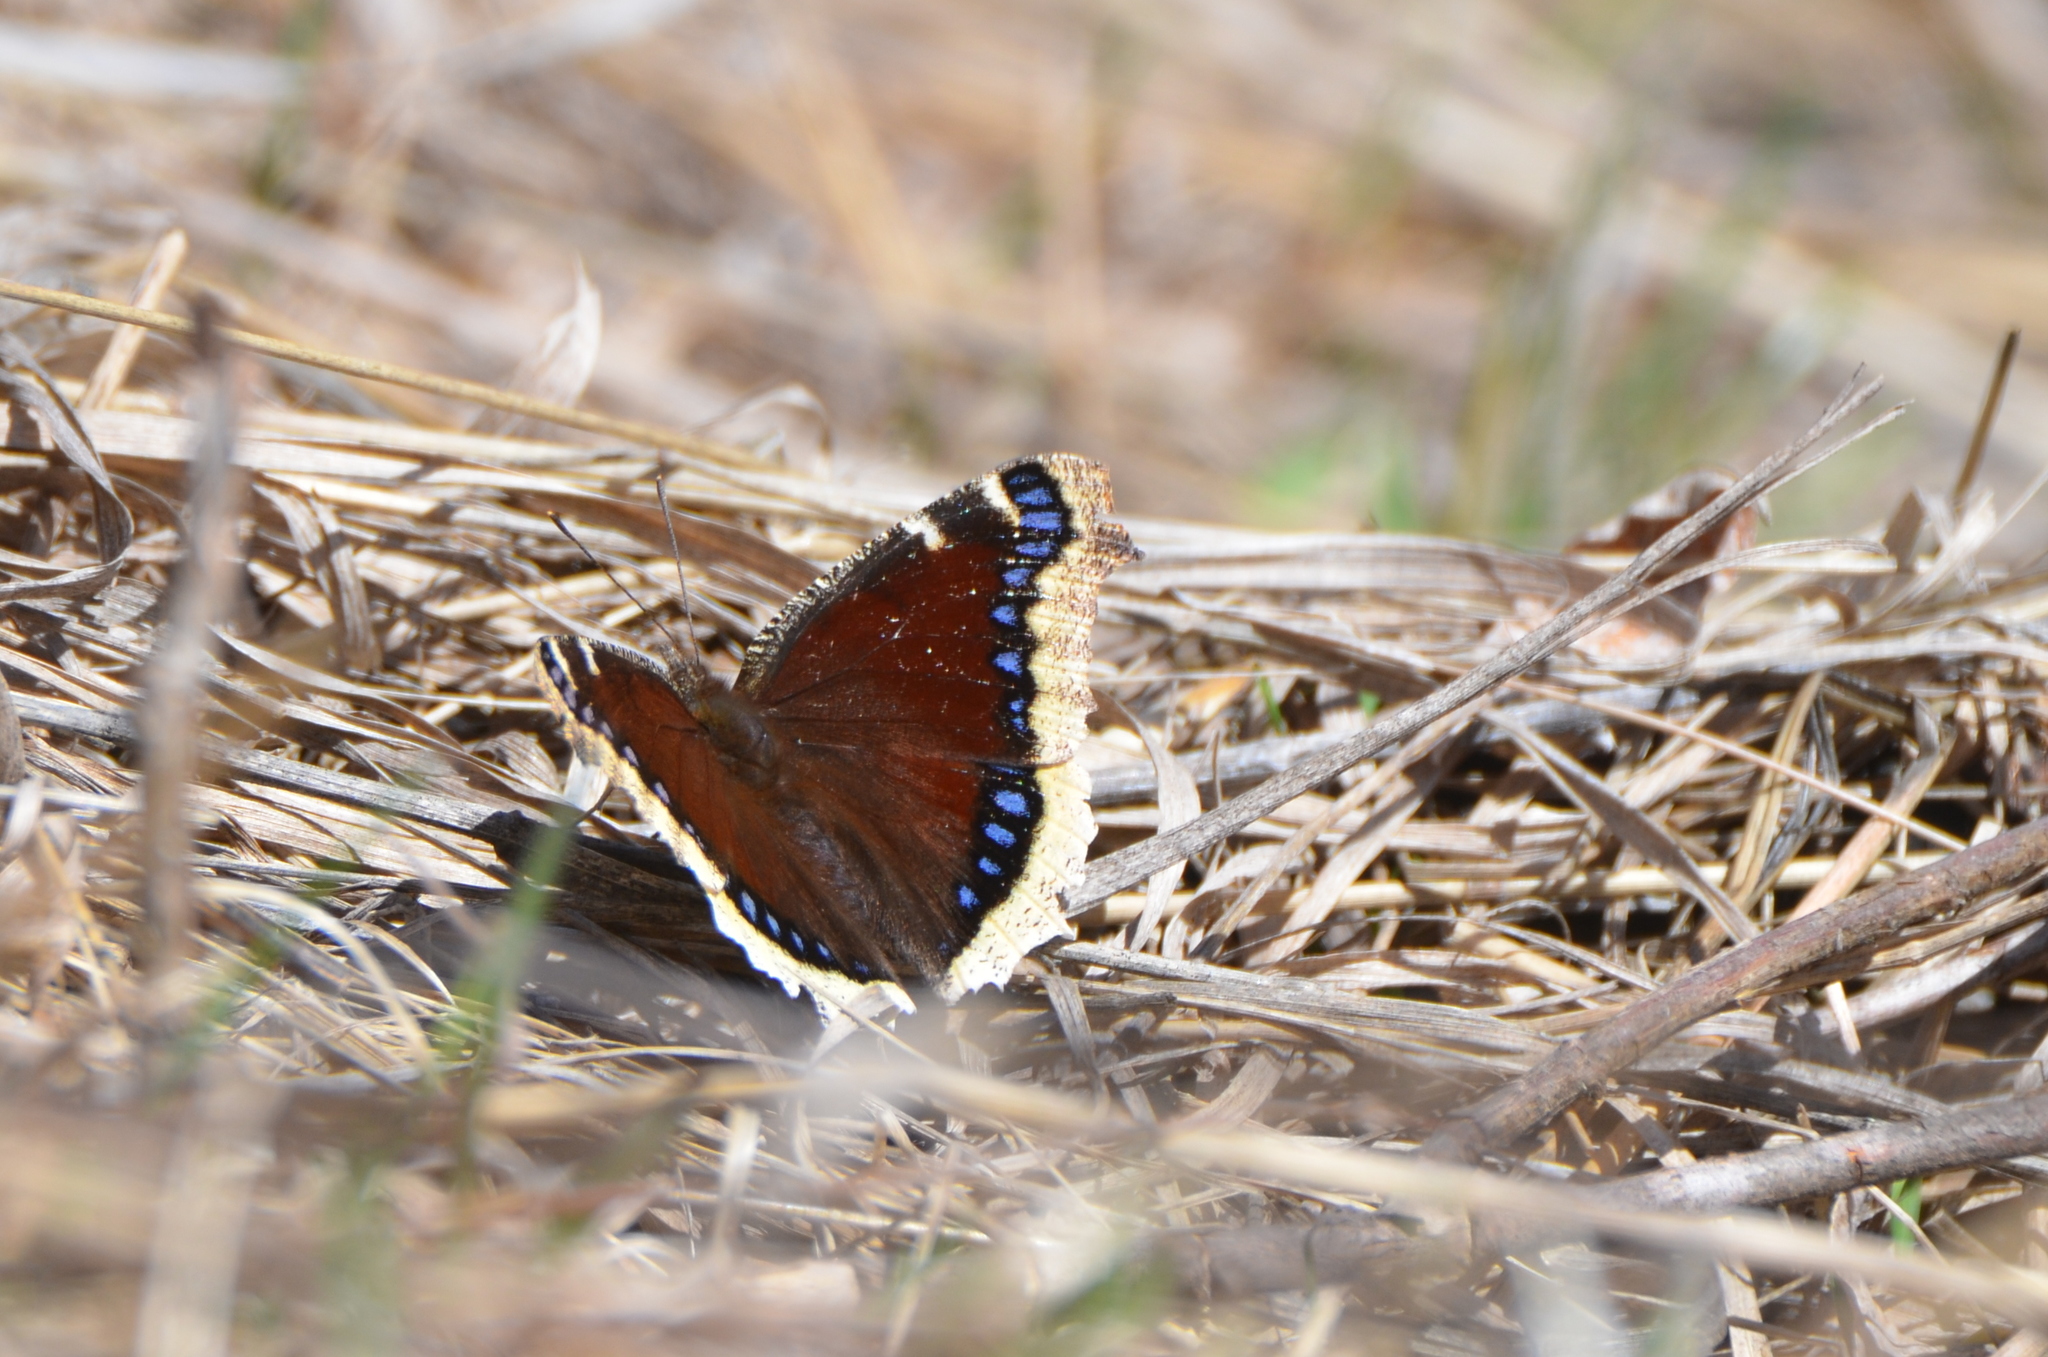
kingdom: Animalia
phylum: Arthropoda
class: Insecta
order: Lepidoptera
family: Nymphalidae
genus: Nymphalis
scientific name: Nymphalis antiopa
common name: Camberwell beauty
